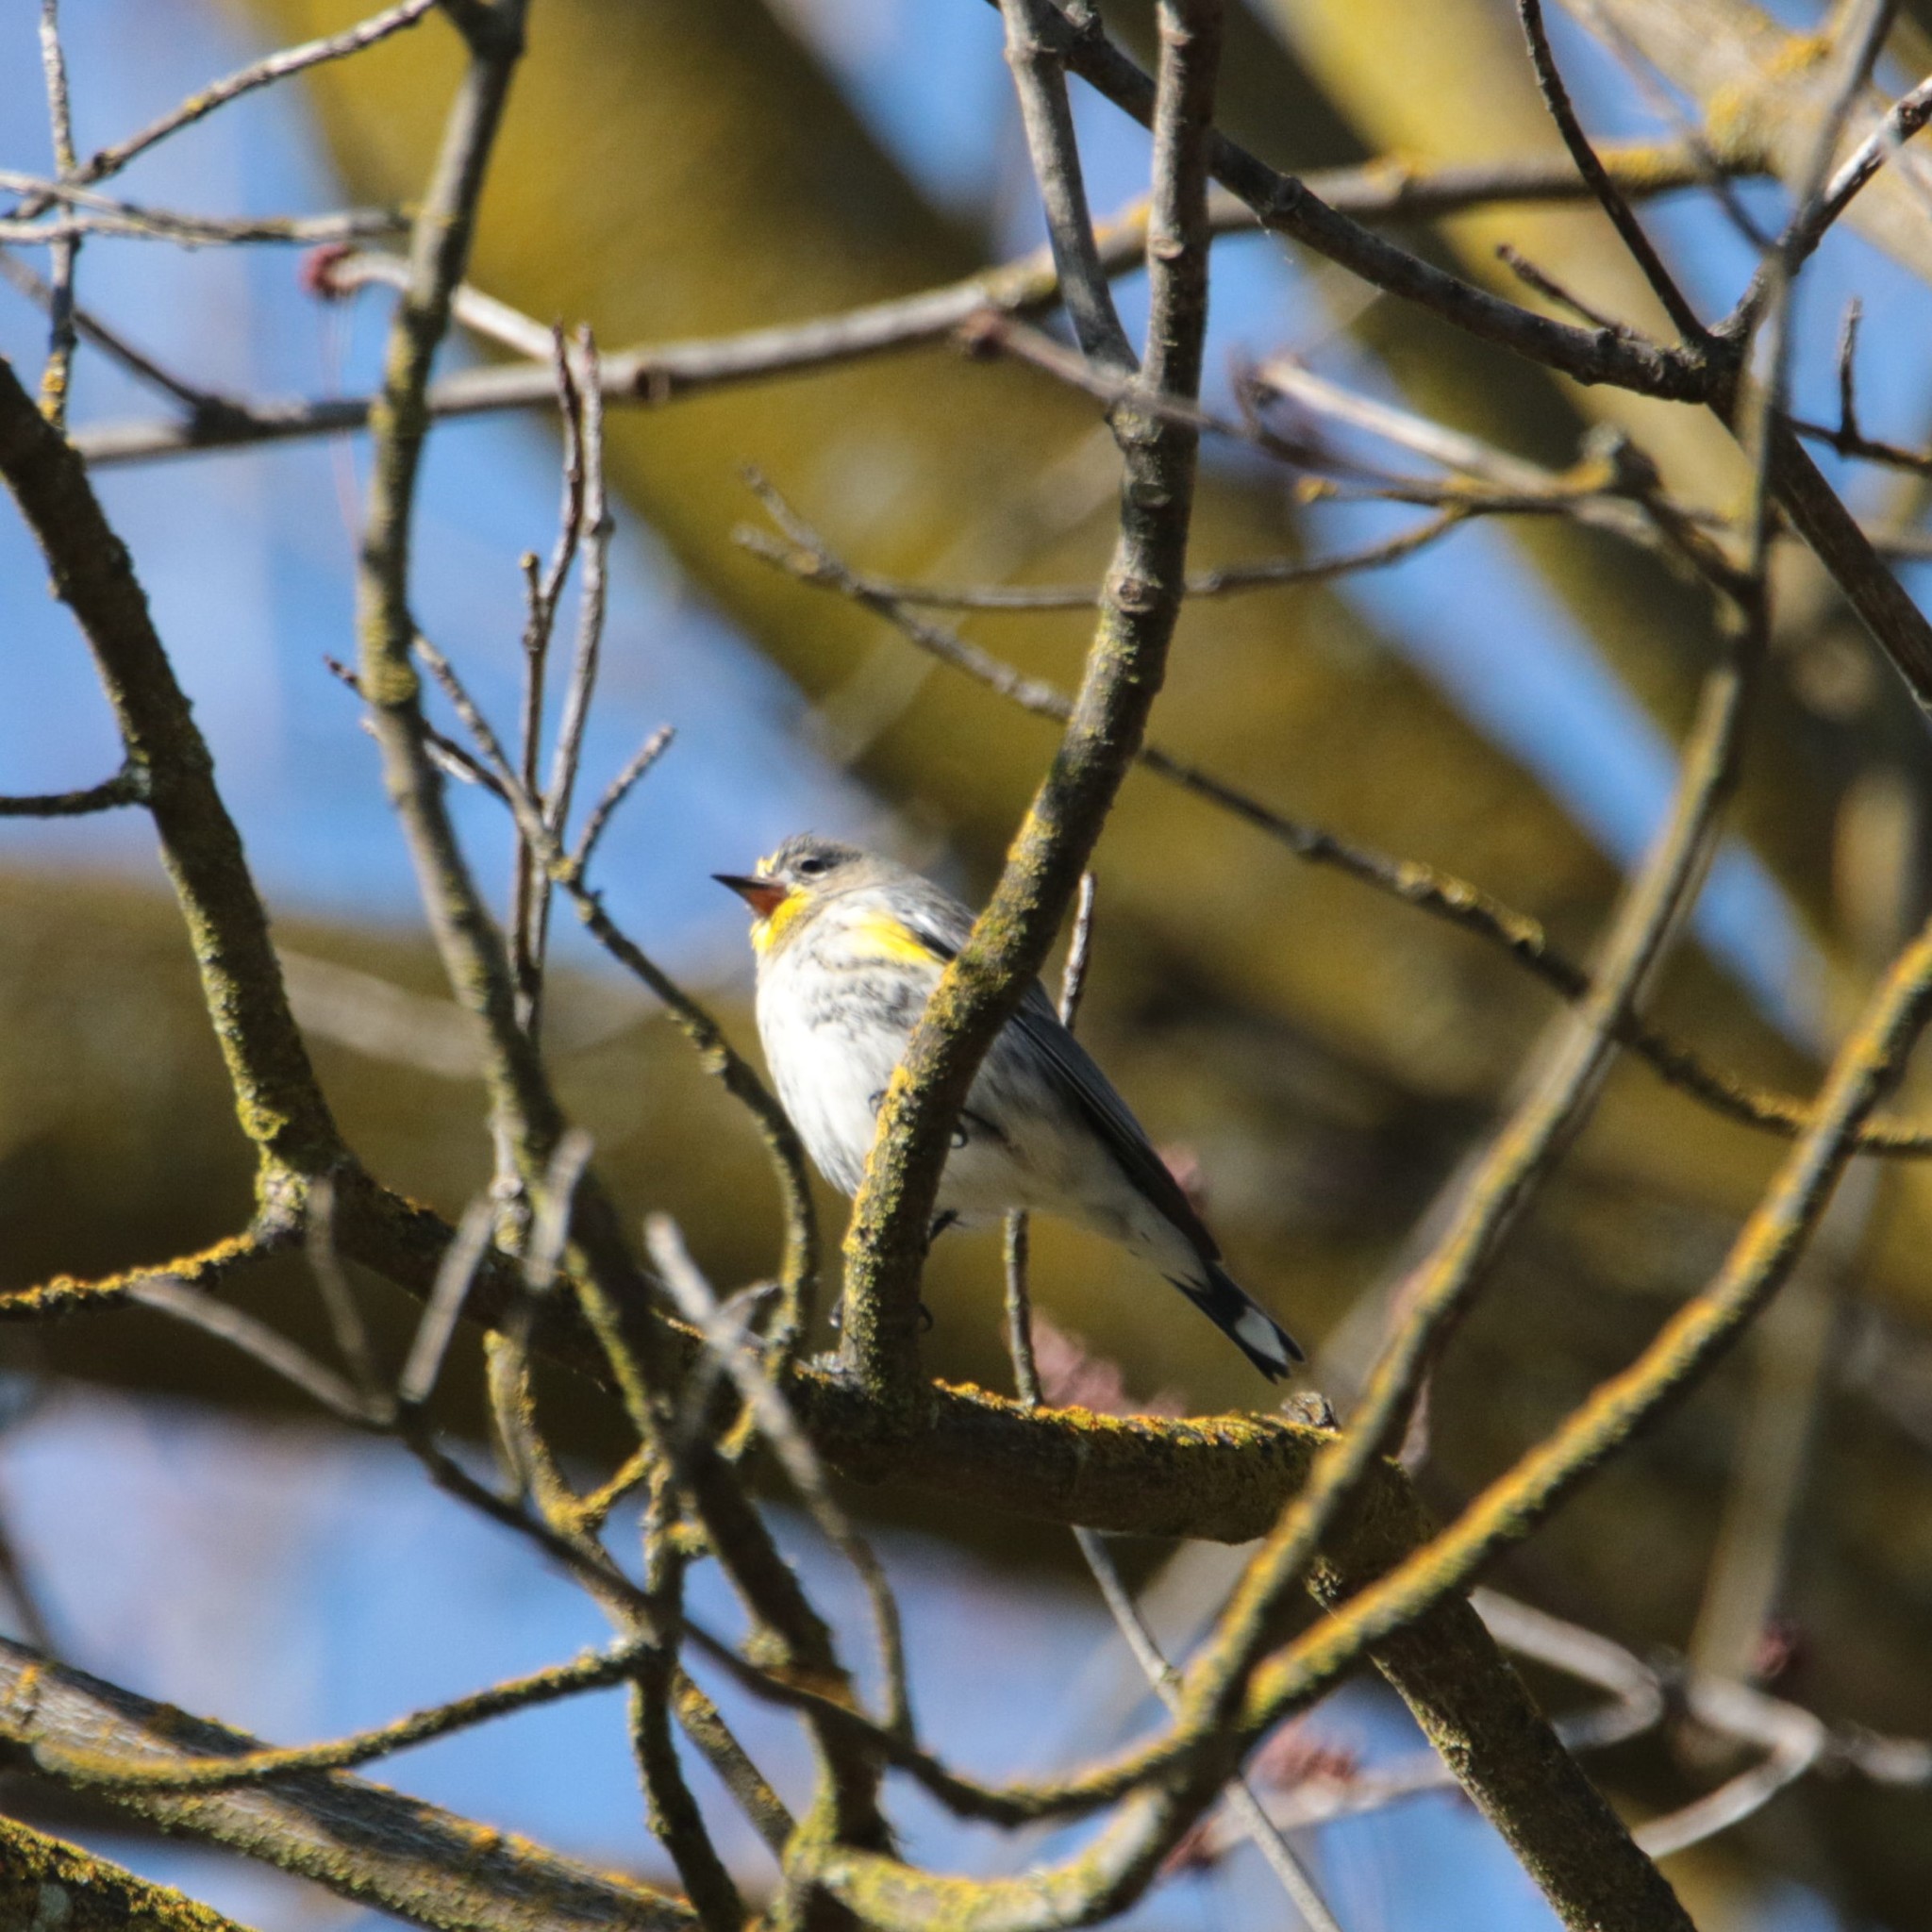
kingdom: Animalia
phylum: Chordata
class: Aves
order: Passeriformes
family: Parulidae
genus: Setophaga
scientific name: Setophaga auduboni
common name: Audubon's warbler
